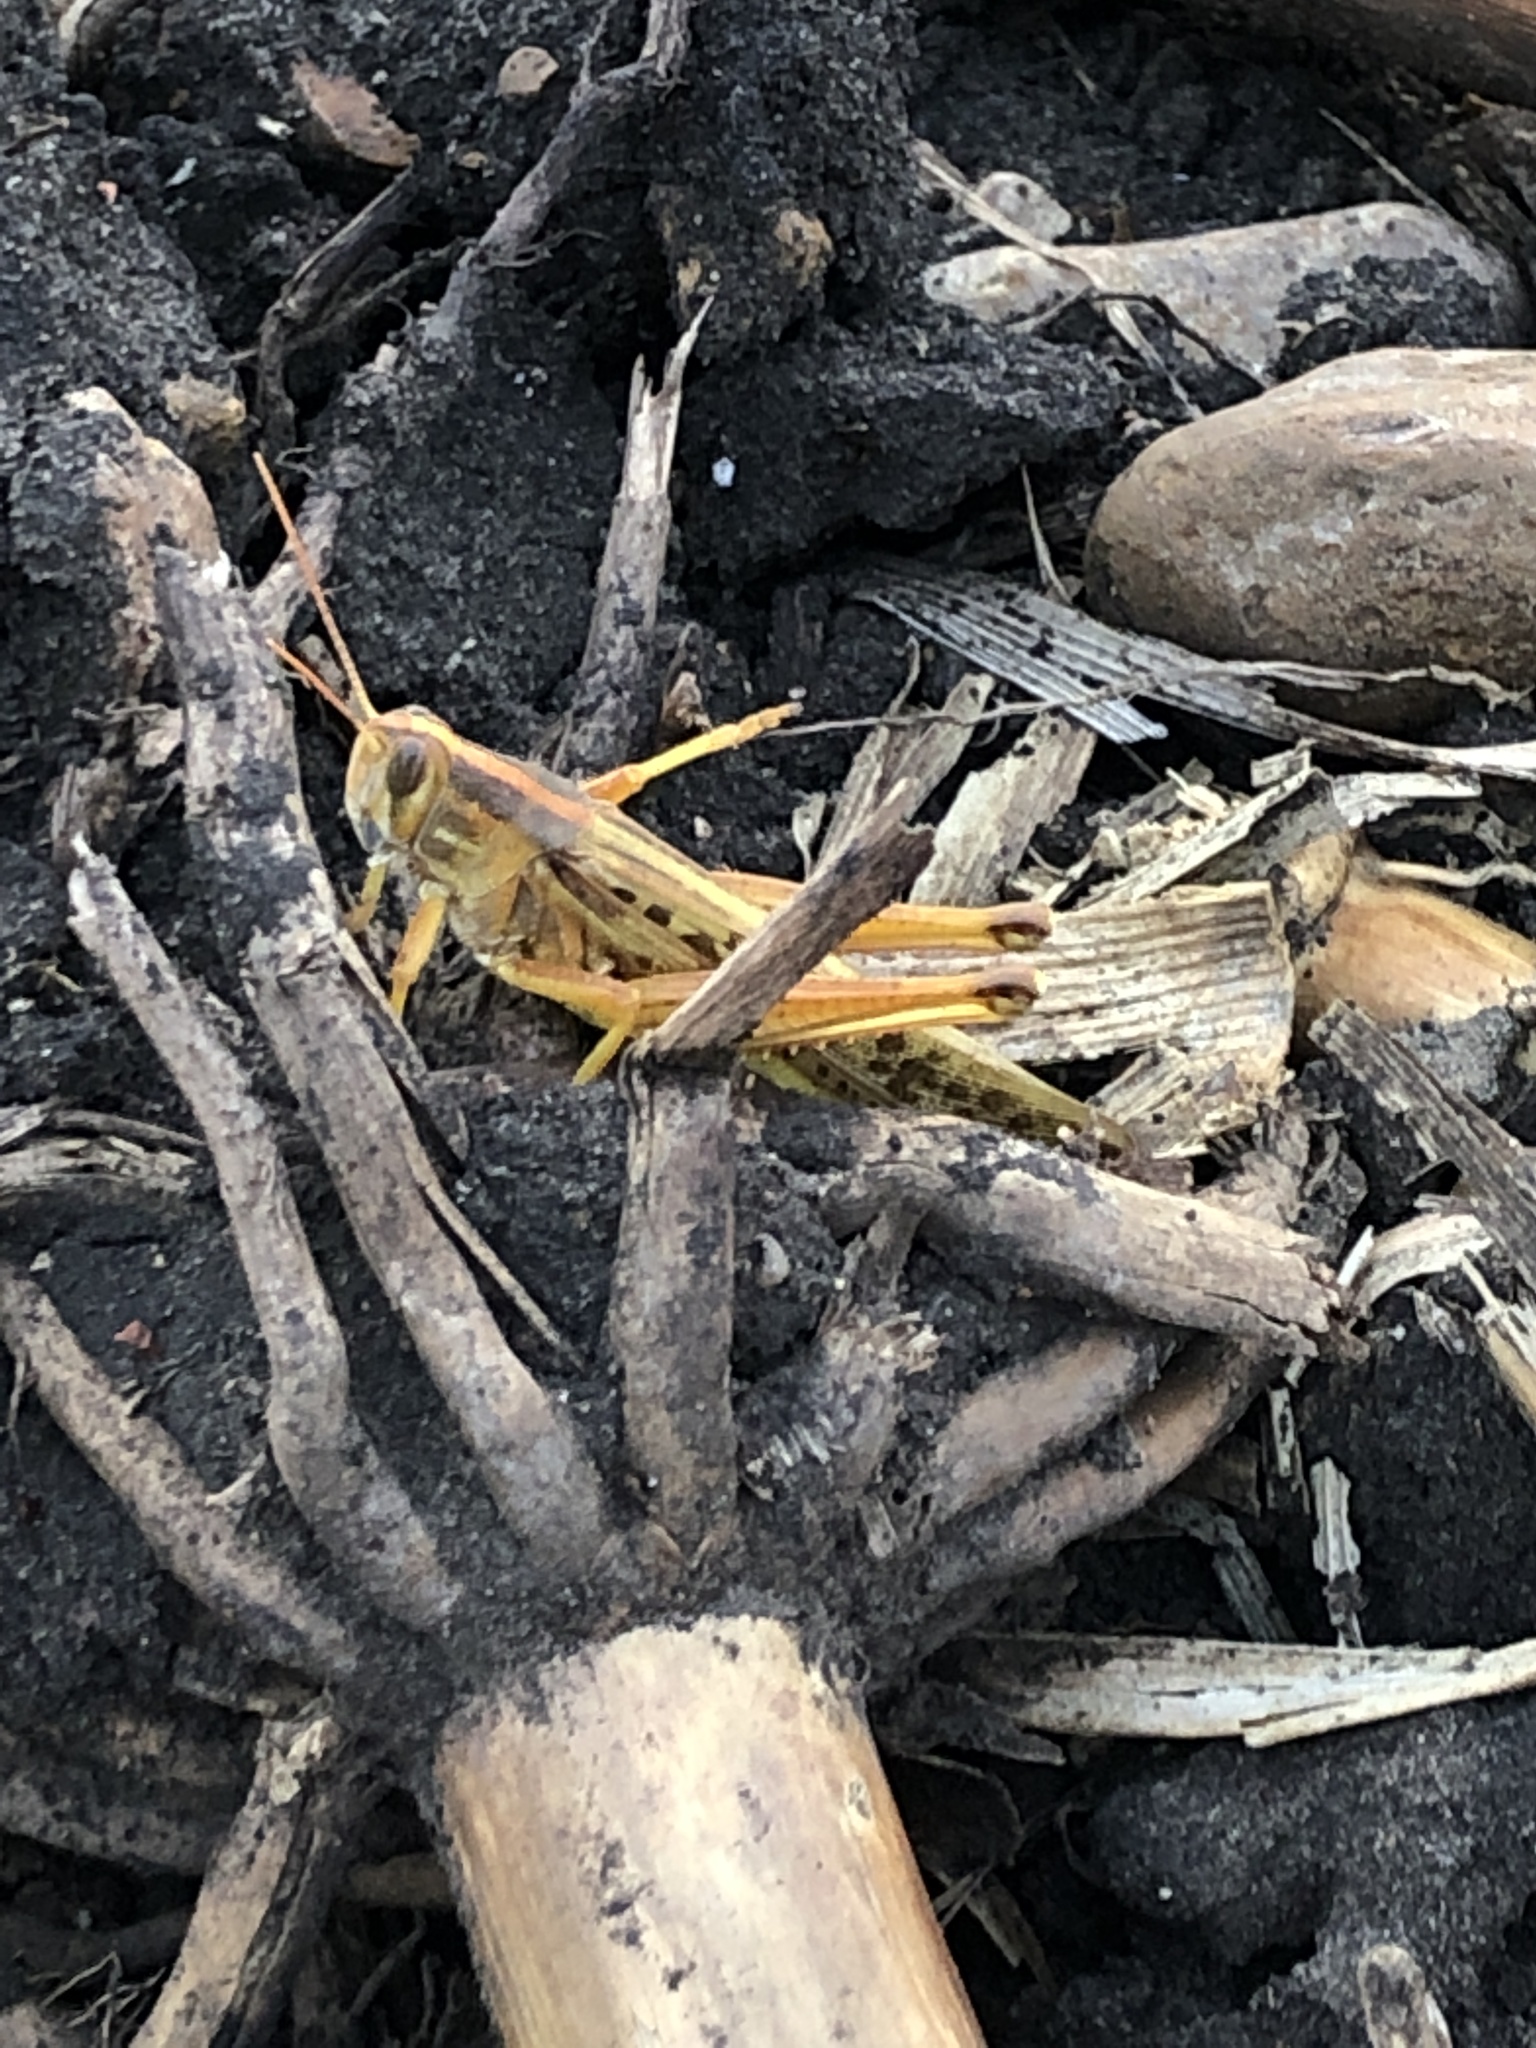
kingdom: Animalia
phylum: Arthropoda
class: Insecta
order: Orthoptera
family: Acrididae
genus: Schistocerca
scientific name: Schistocerca americana
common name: American bird locust
